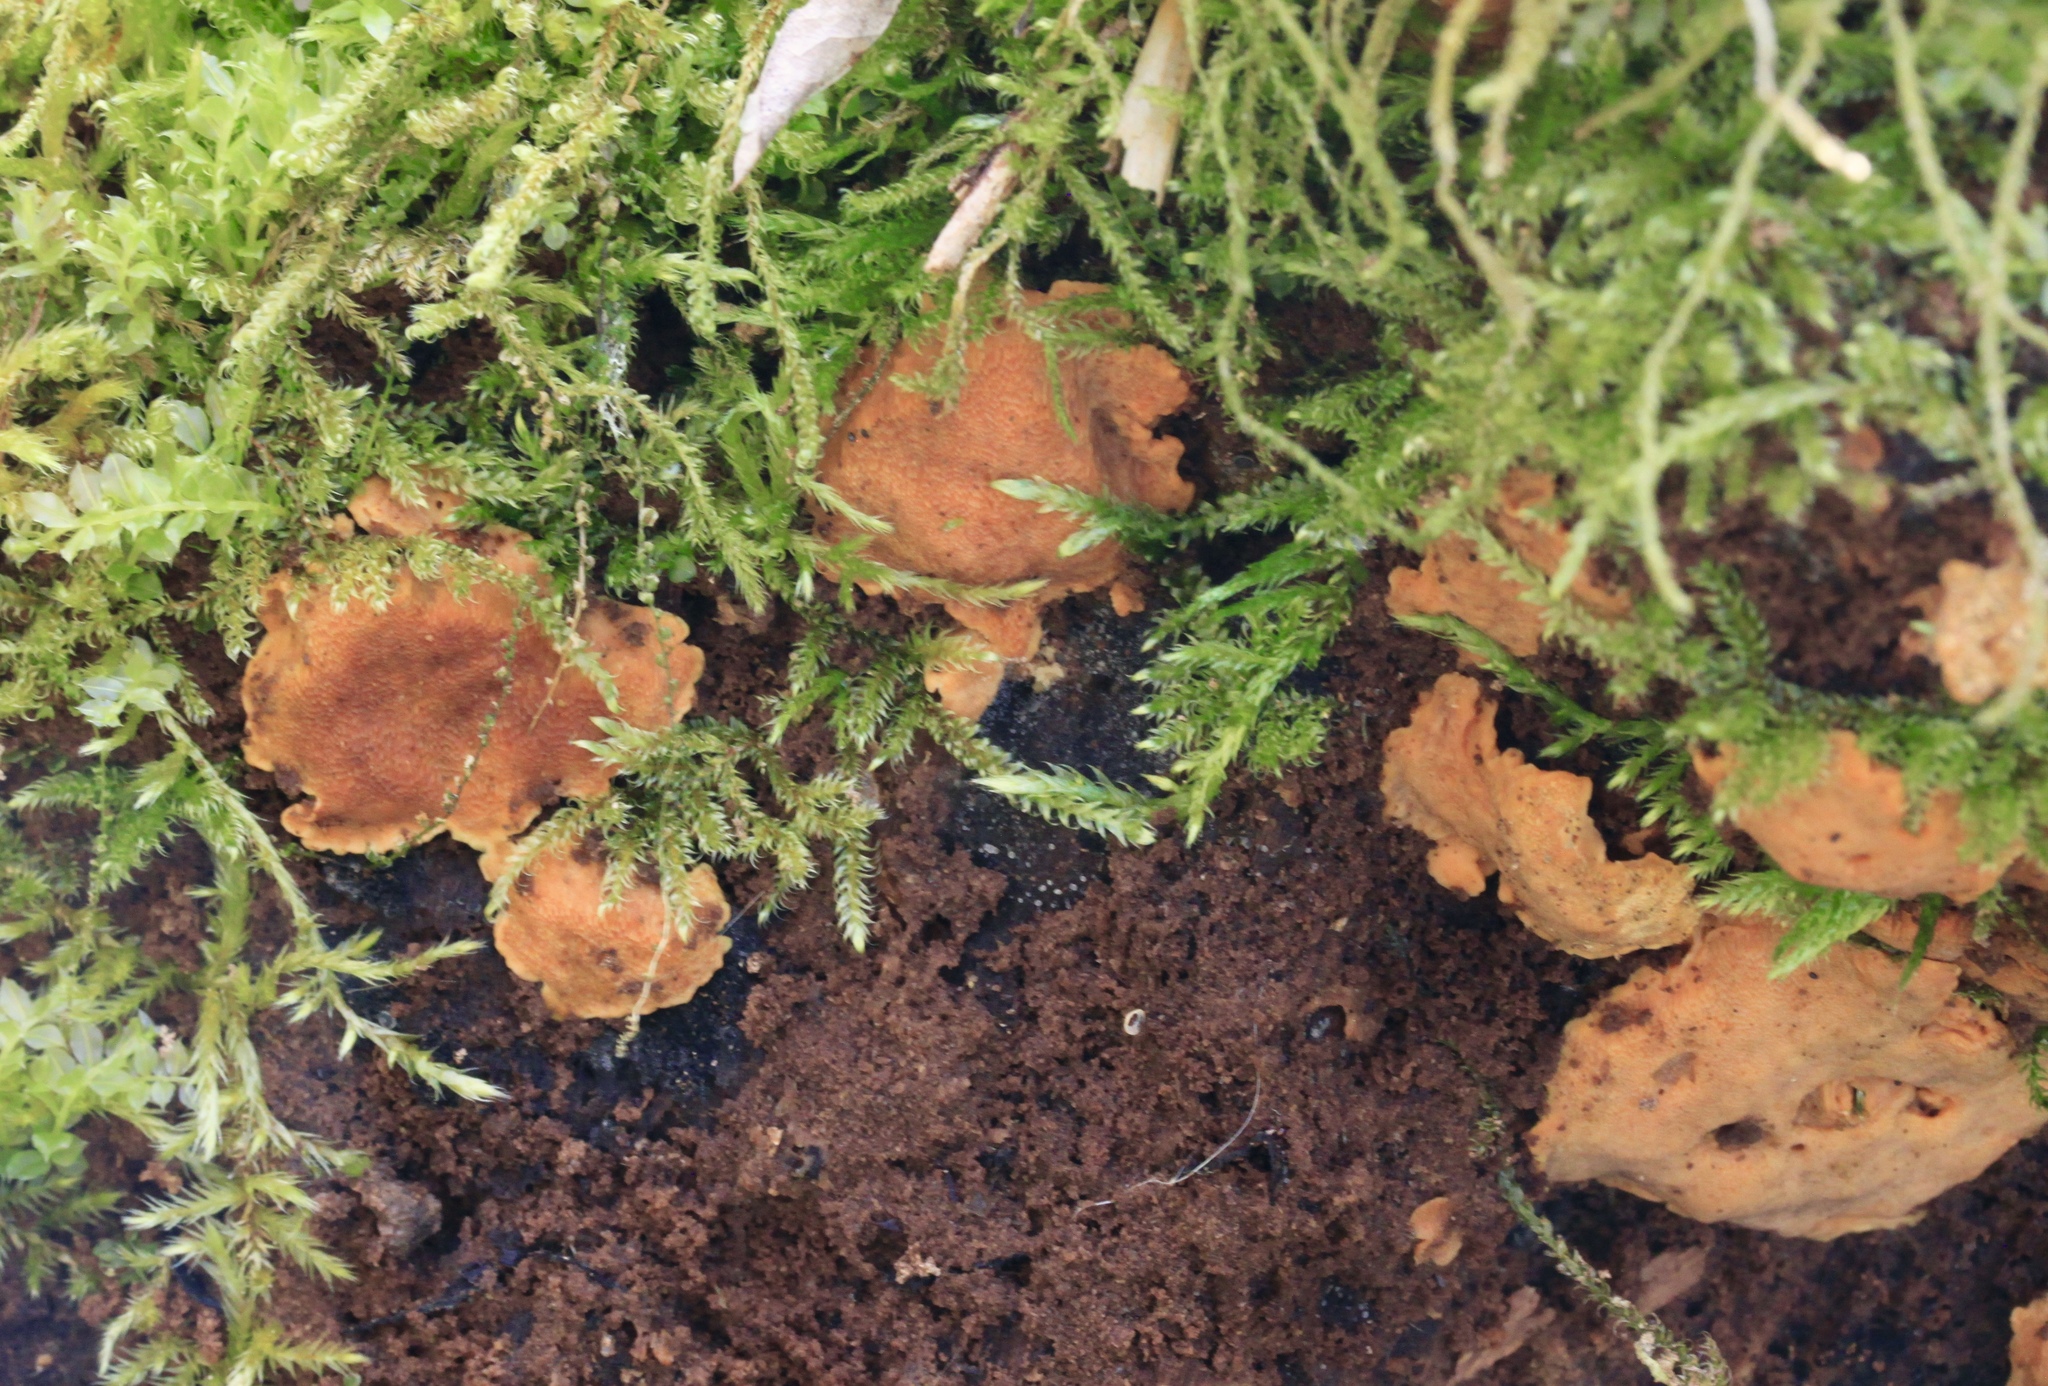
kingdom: Fungi
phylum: Basidiomycota
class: Agaricomycetes
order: Polyporales
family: Meripilaceae
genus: Rigidoporus
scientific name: Rigidoporus crocatus
